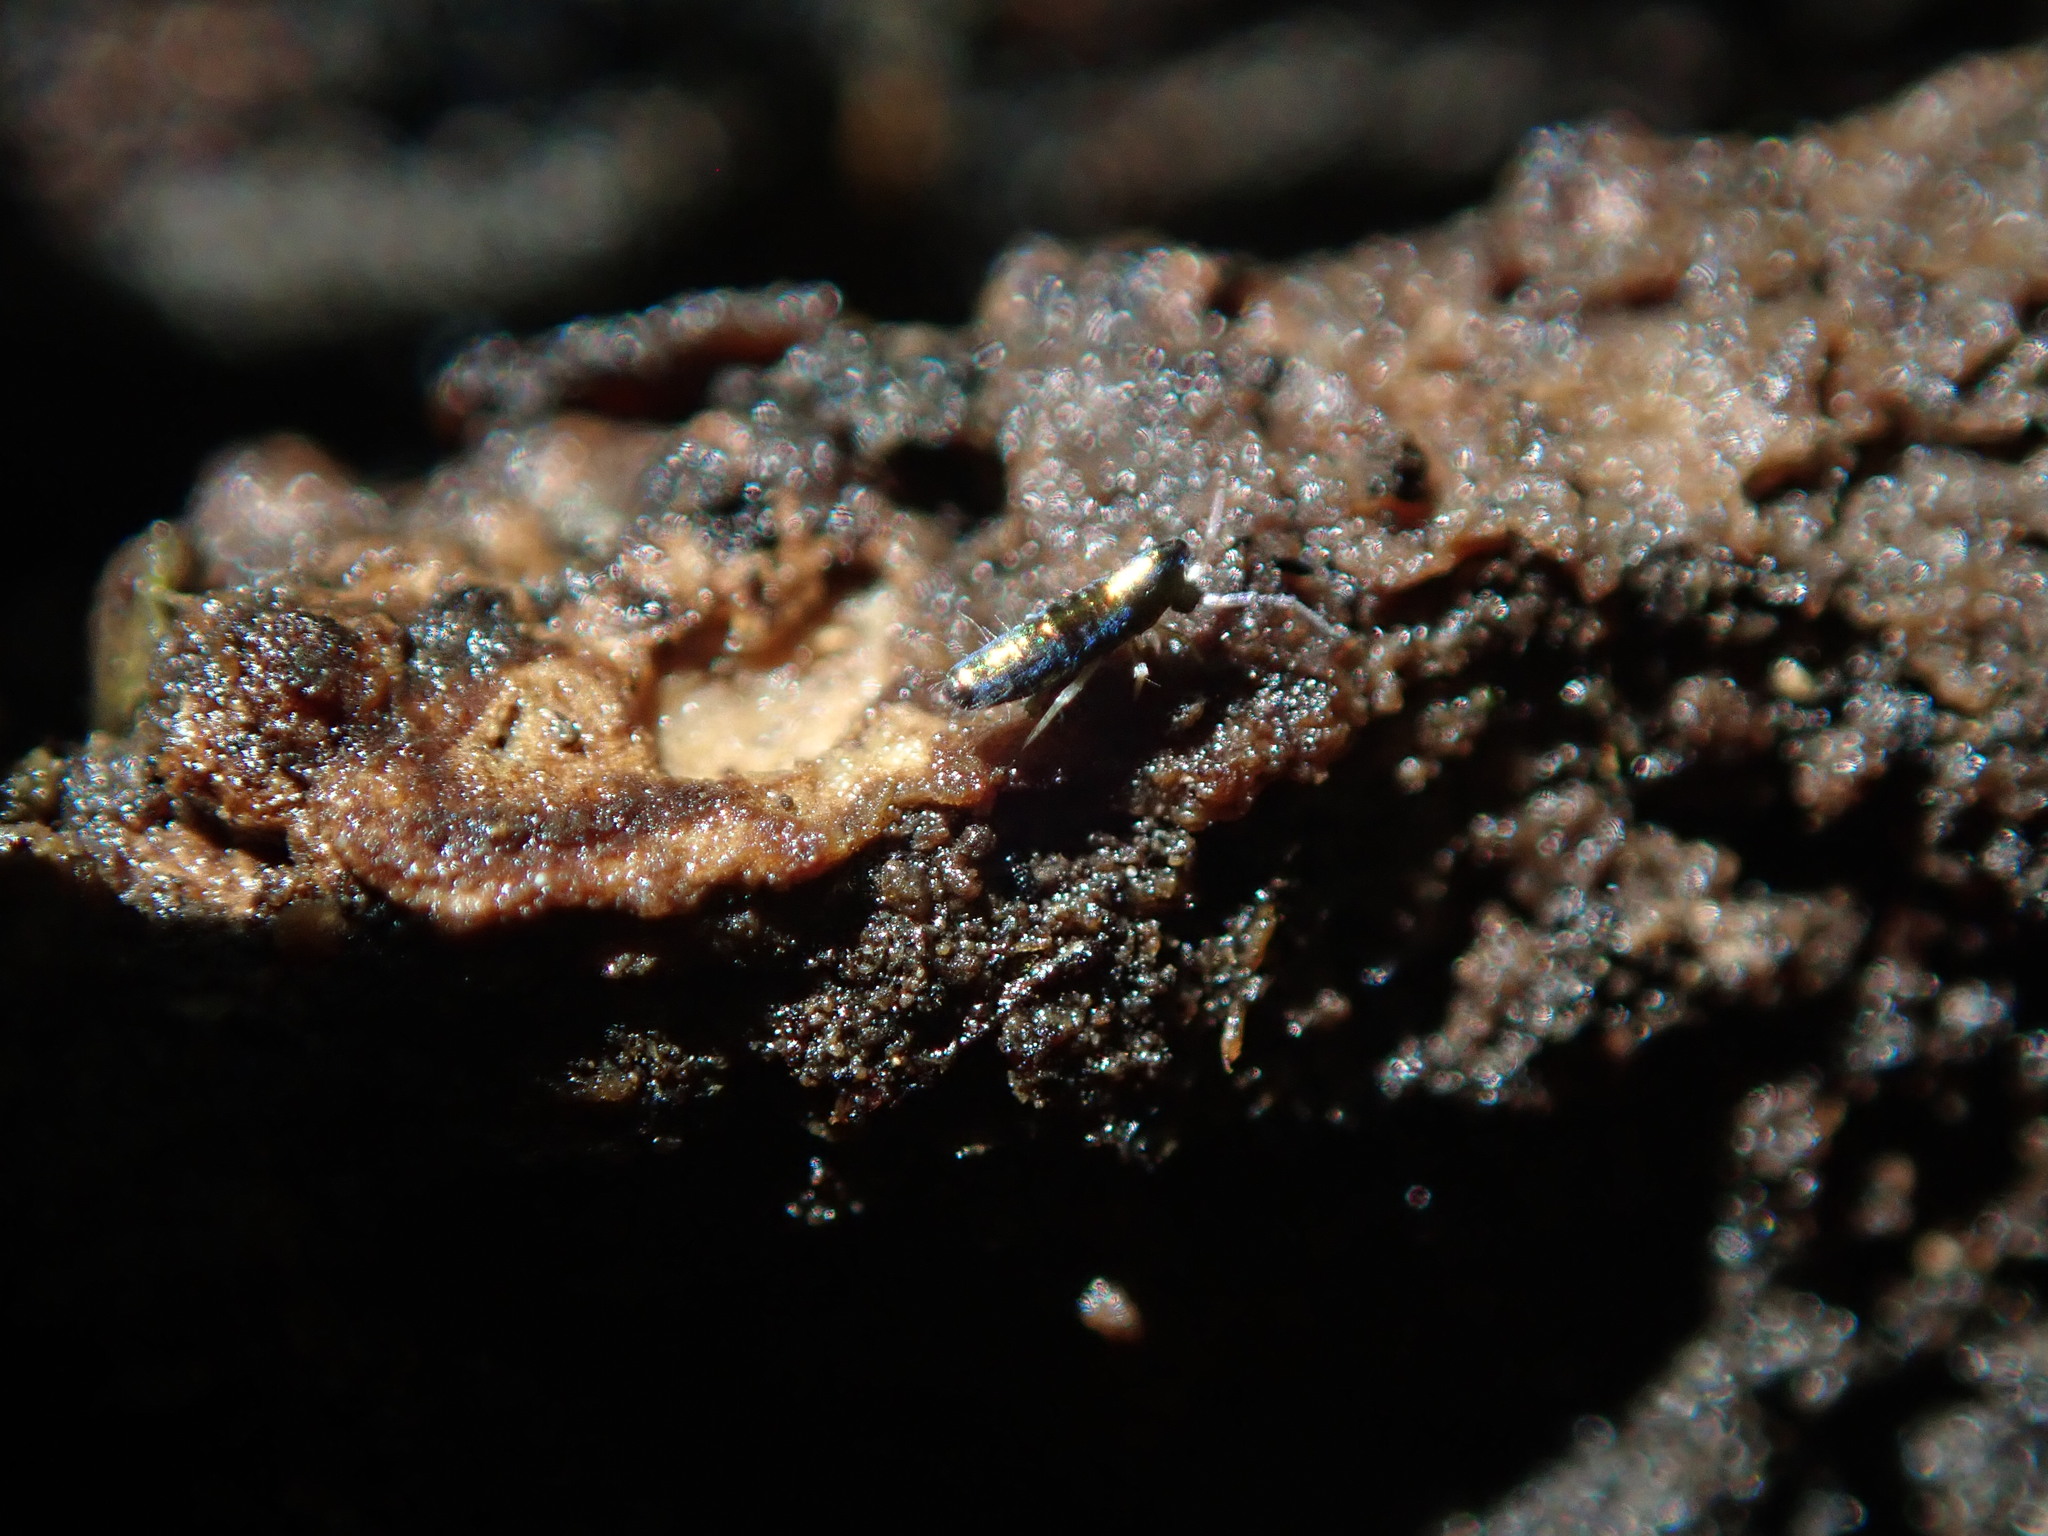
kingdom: Animalia
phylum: Arthropoda
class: Collembola
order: Entomobryomorpha
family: Entomobryidae
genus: Lepidocyrtus
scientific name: Lepidocyrtus paradoxus
